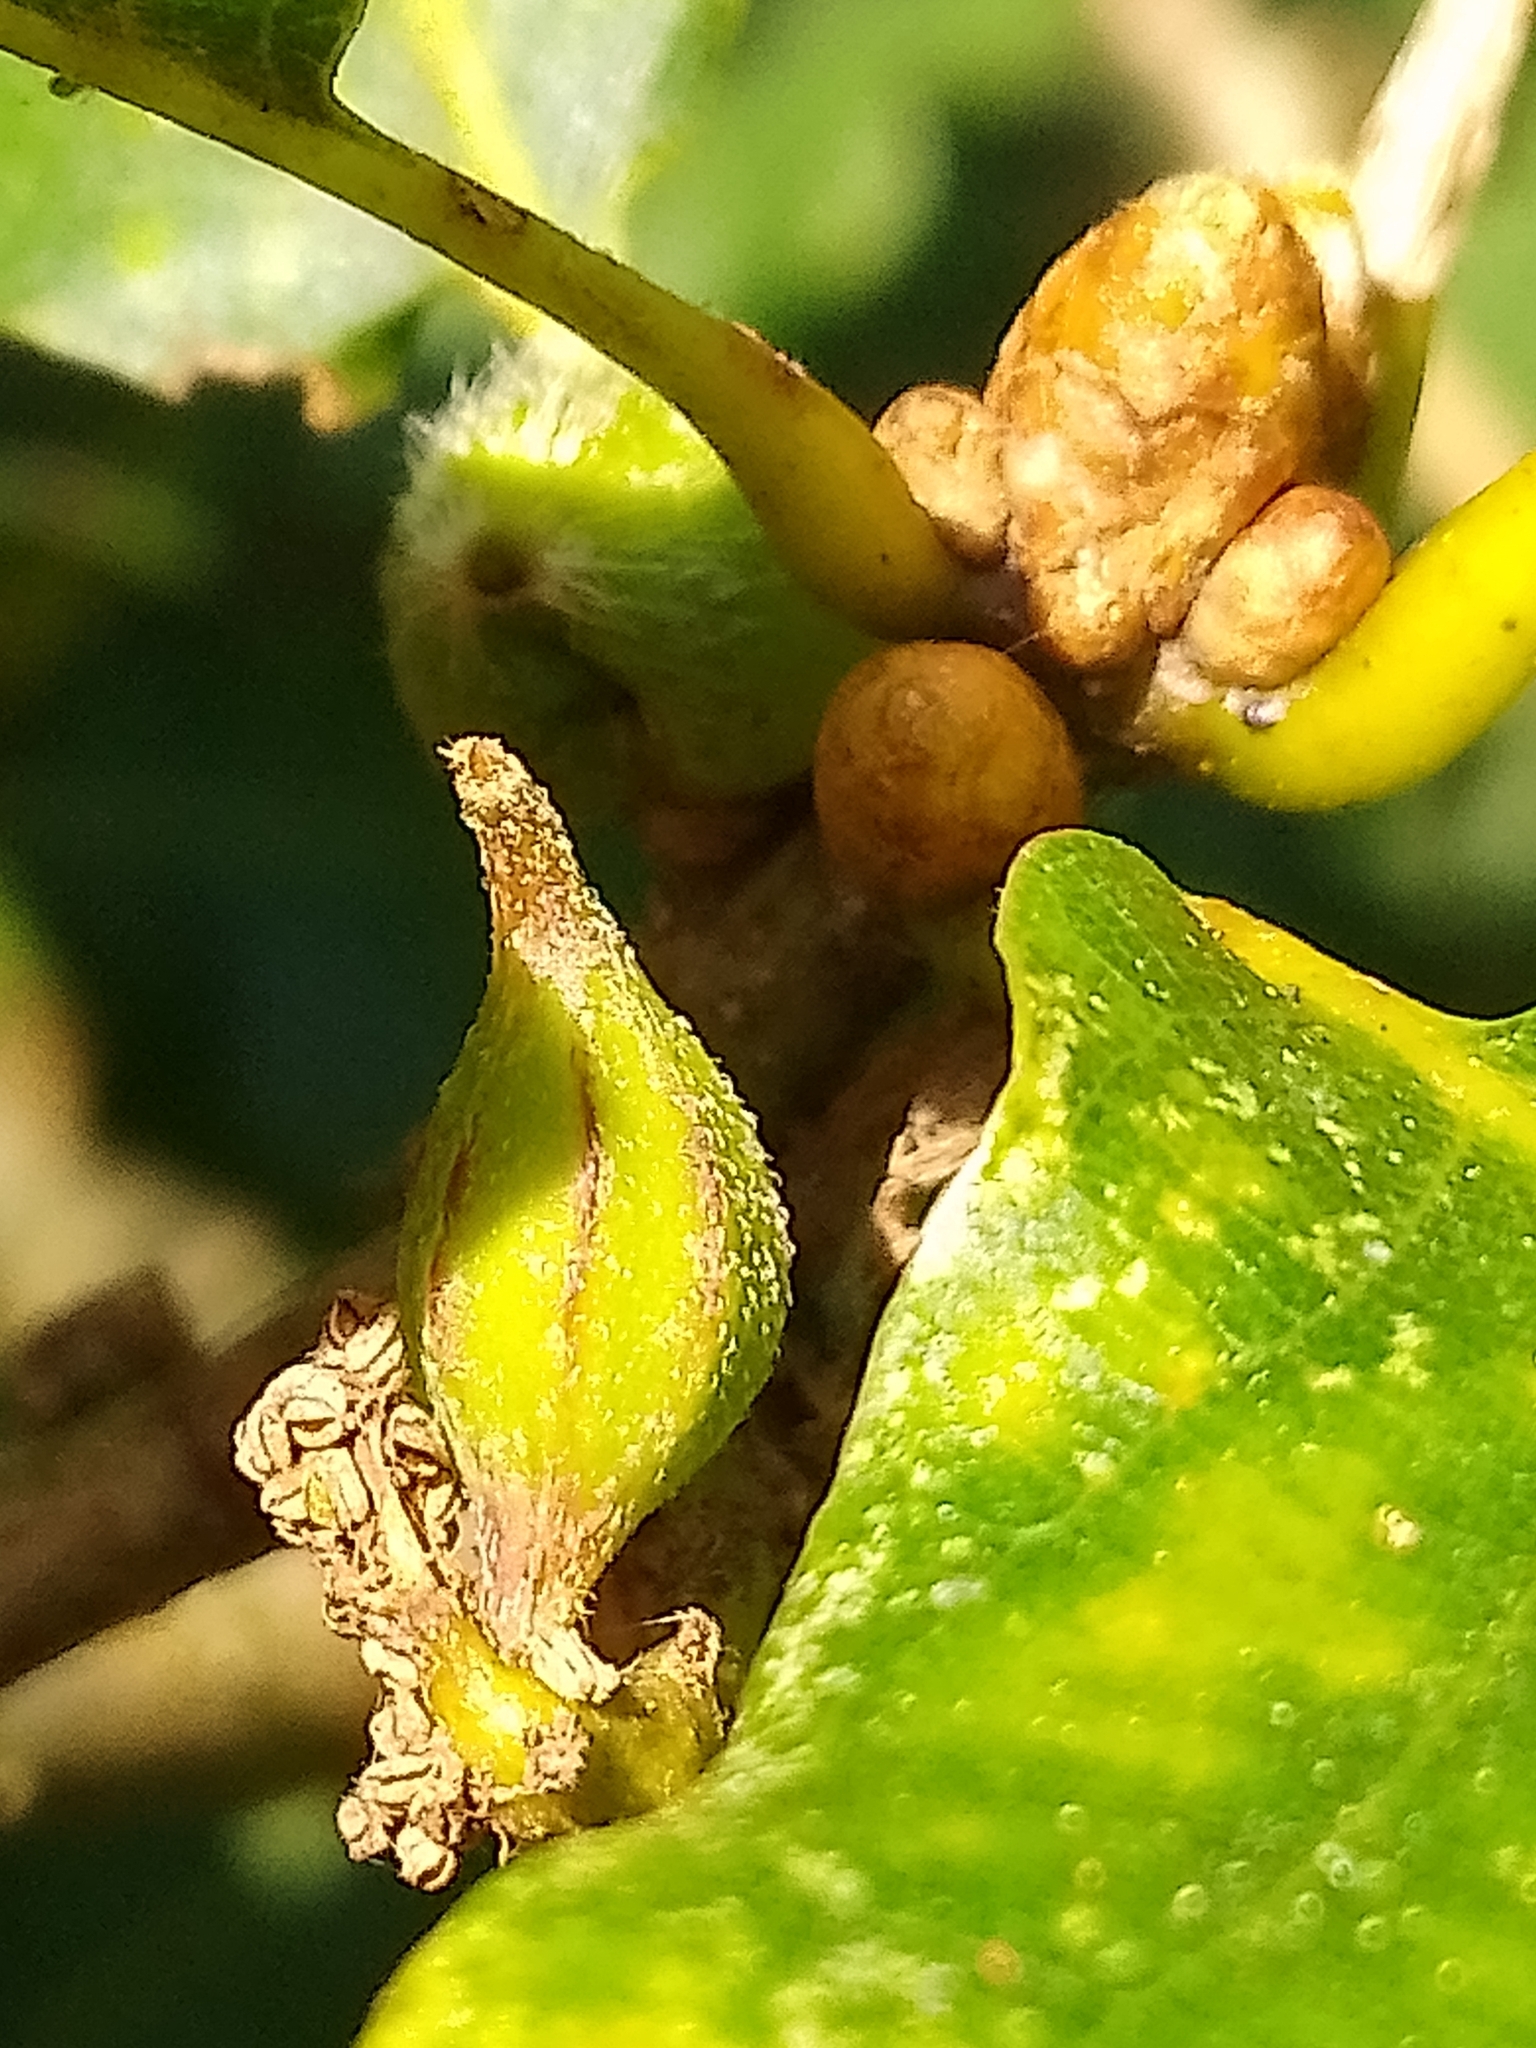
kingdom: Animalia
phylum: Arthropoda
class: Insecta
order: Hymenoptera
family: Cynipidae
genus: Andricus
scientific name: Andricus malpighii
